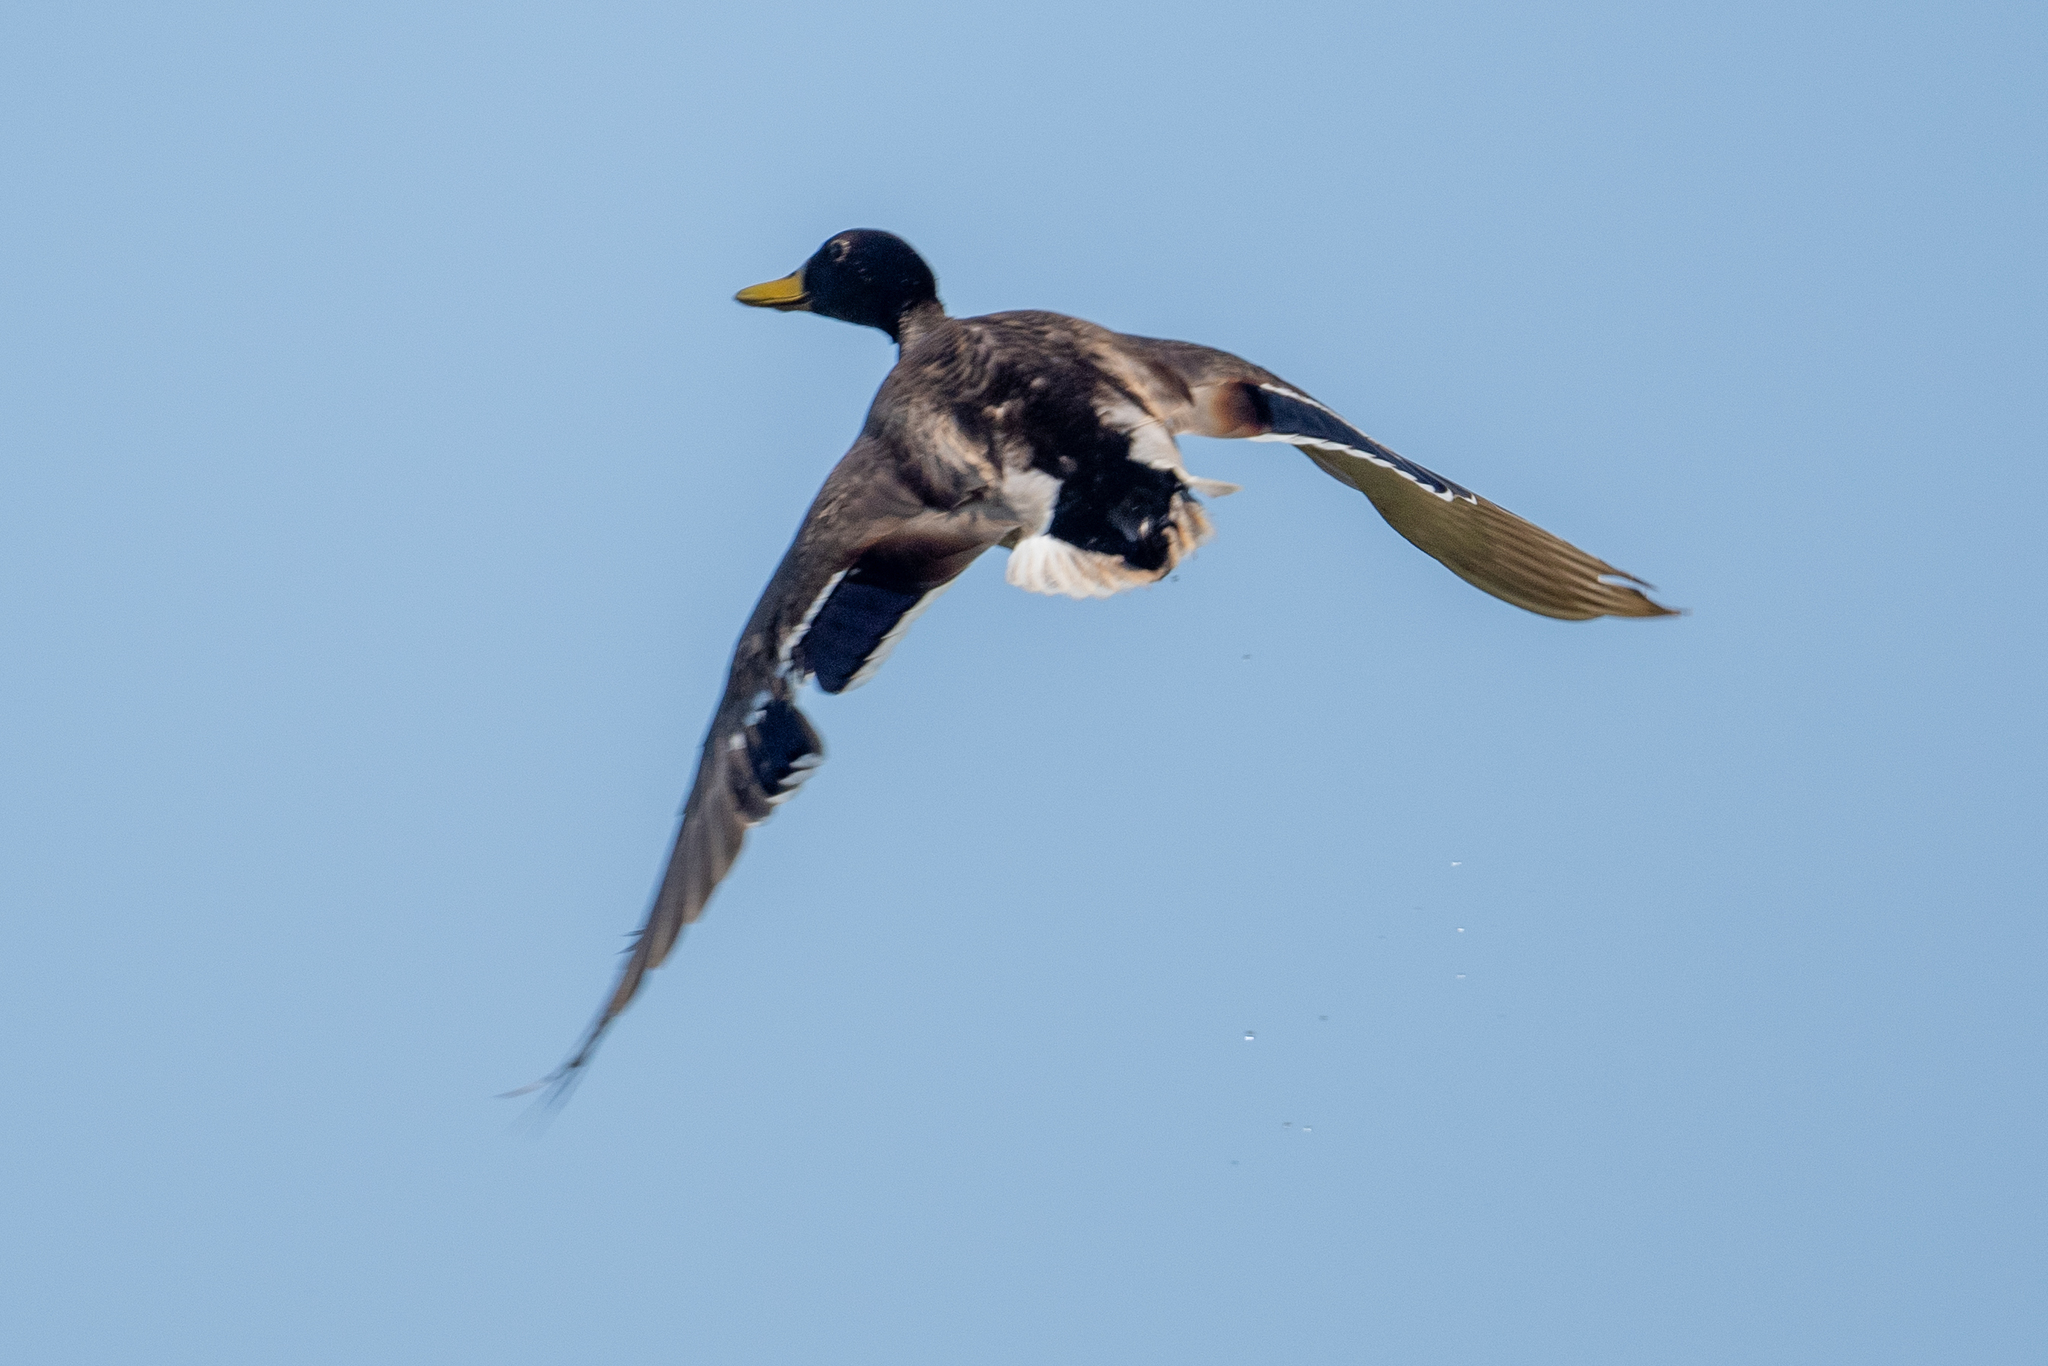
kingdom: Animalia
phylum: Chordata
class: Aves
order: Anseriformes
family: Anatidae
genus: Anas
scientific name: Anas platyrhynchos
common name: Mallard
